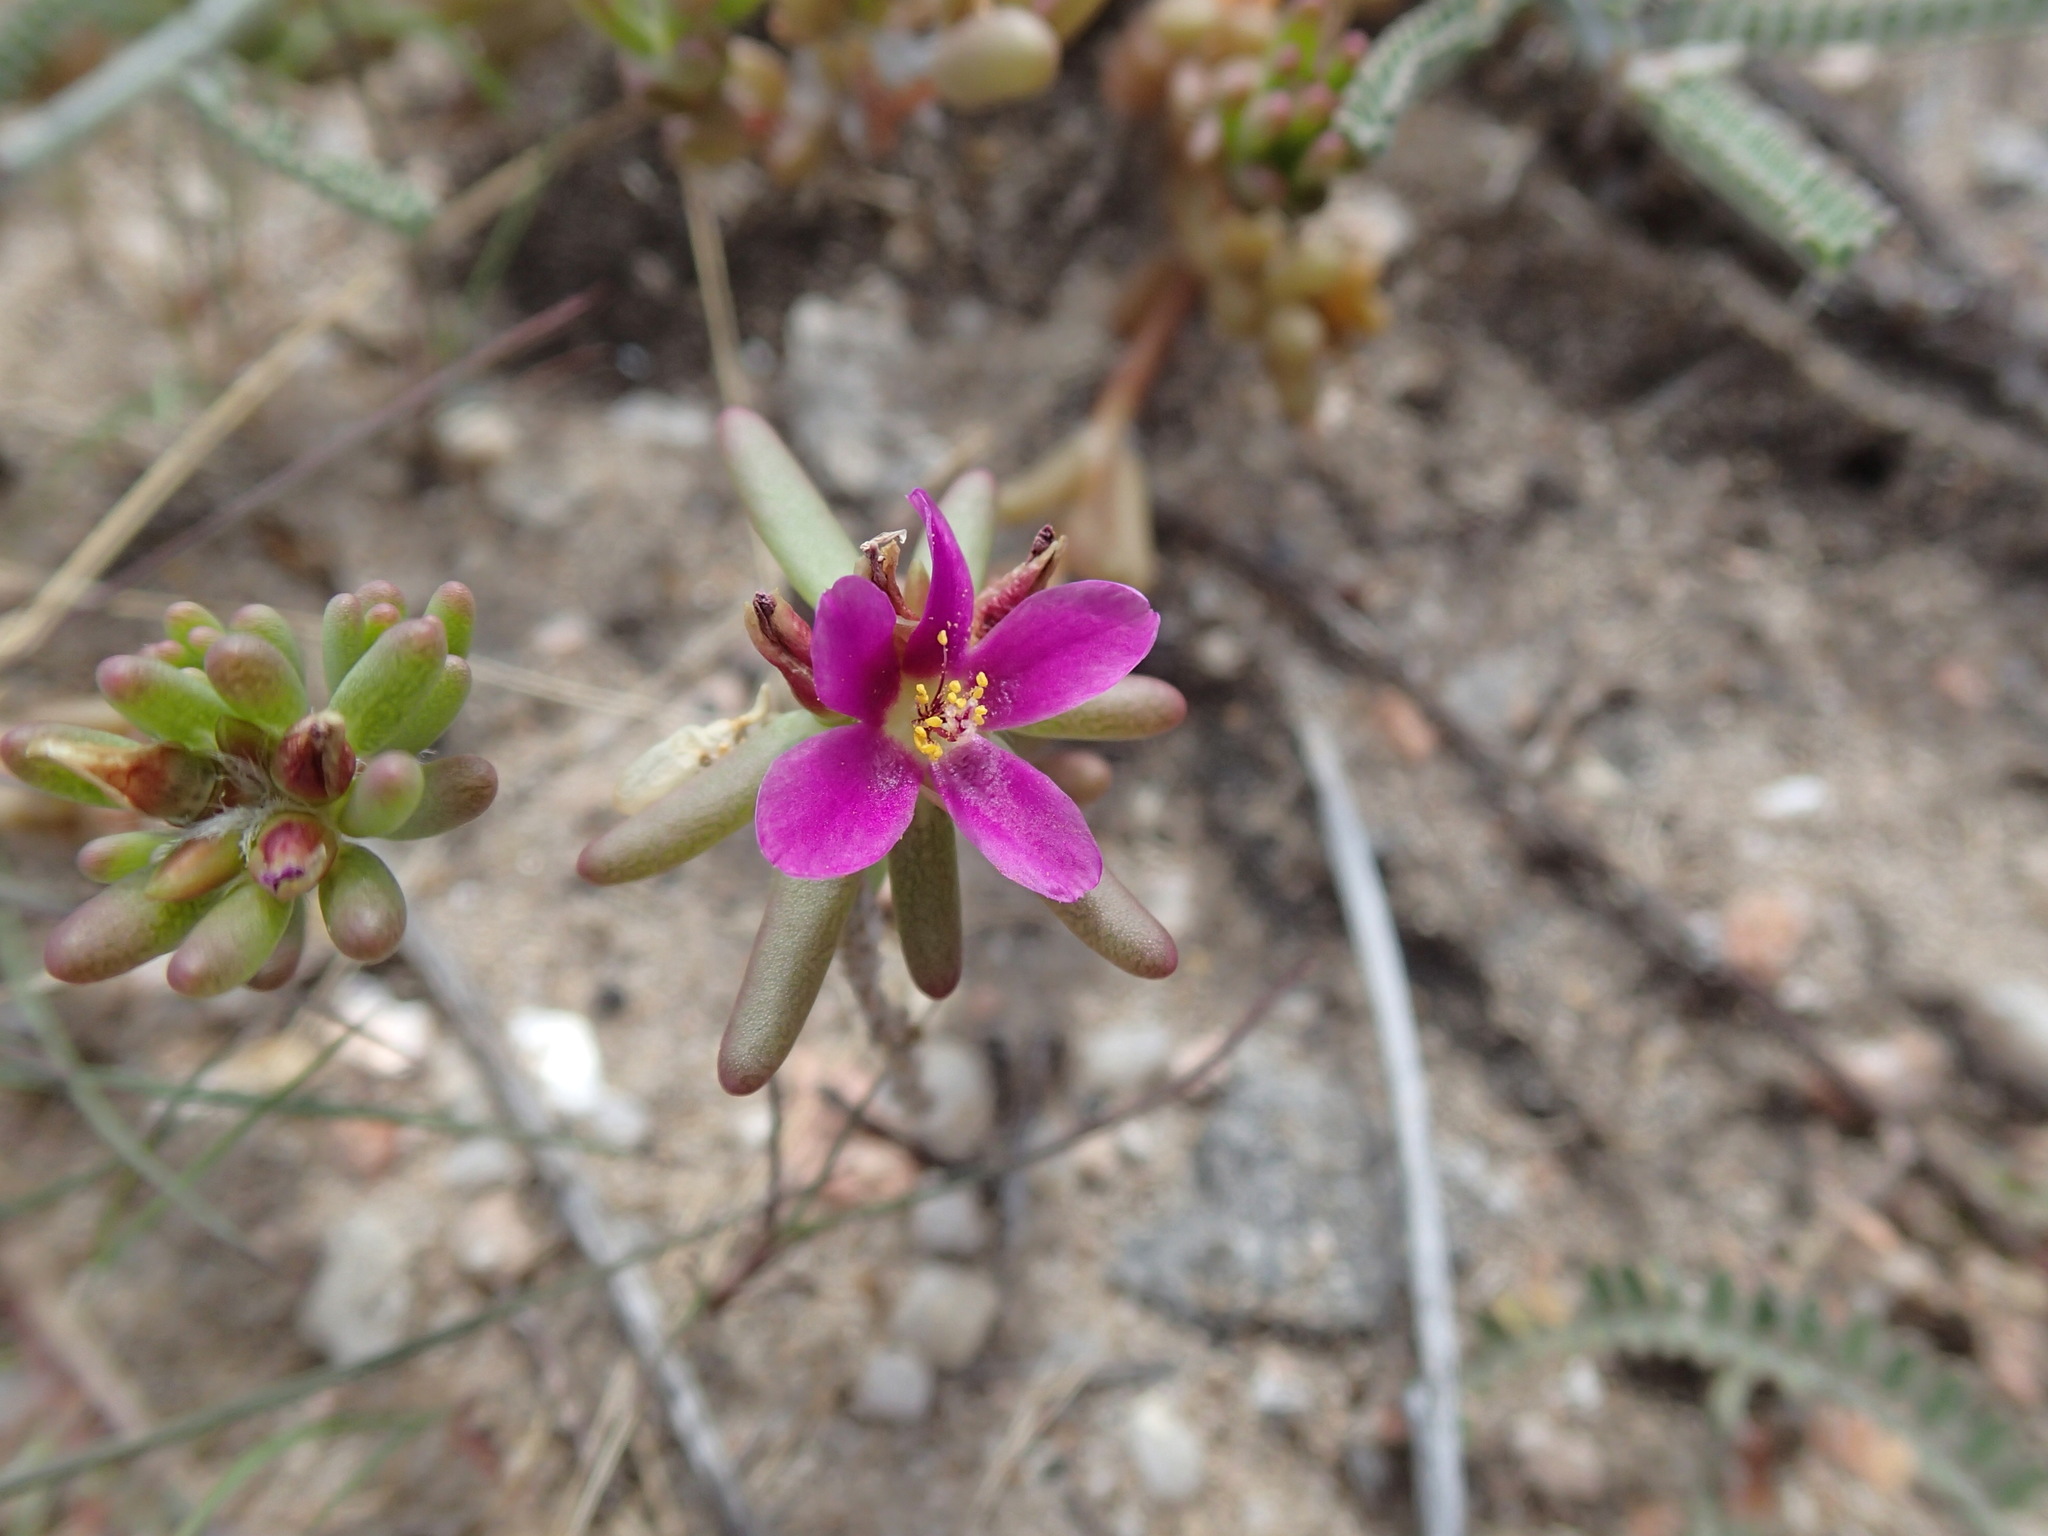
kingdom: Plantae
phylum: Tracheophyta
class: Magnoliopsida
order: Caryophyllales
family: Portulacaceae
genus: Portulaca
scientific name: Portulaca californica
